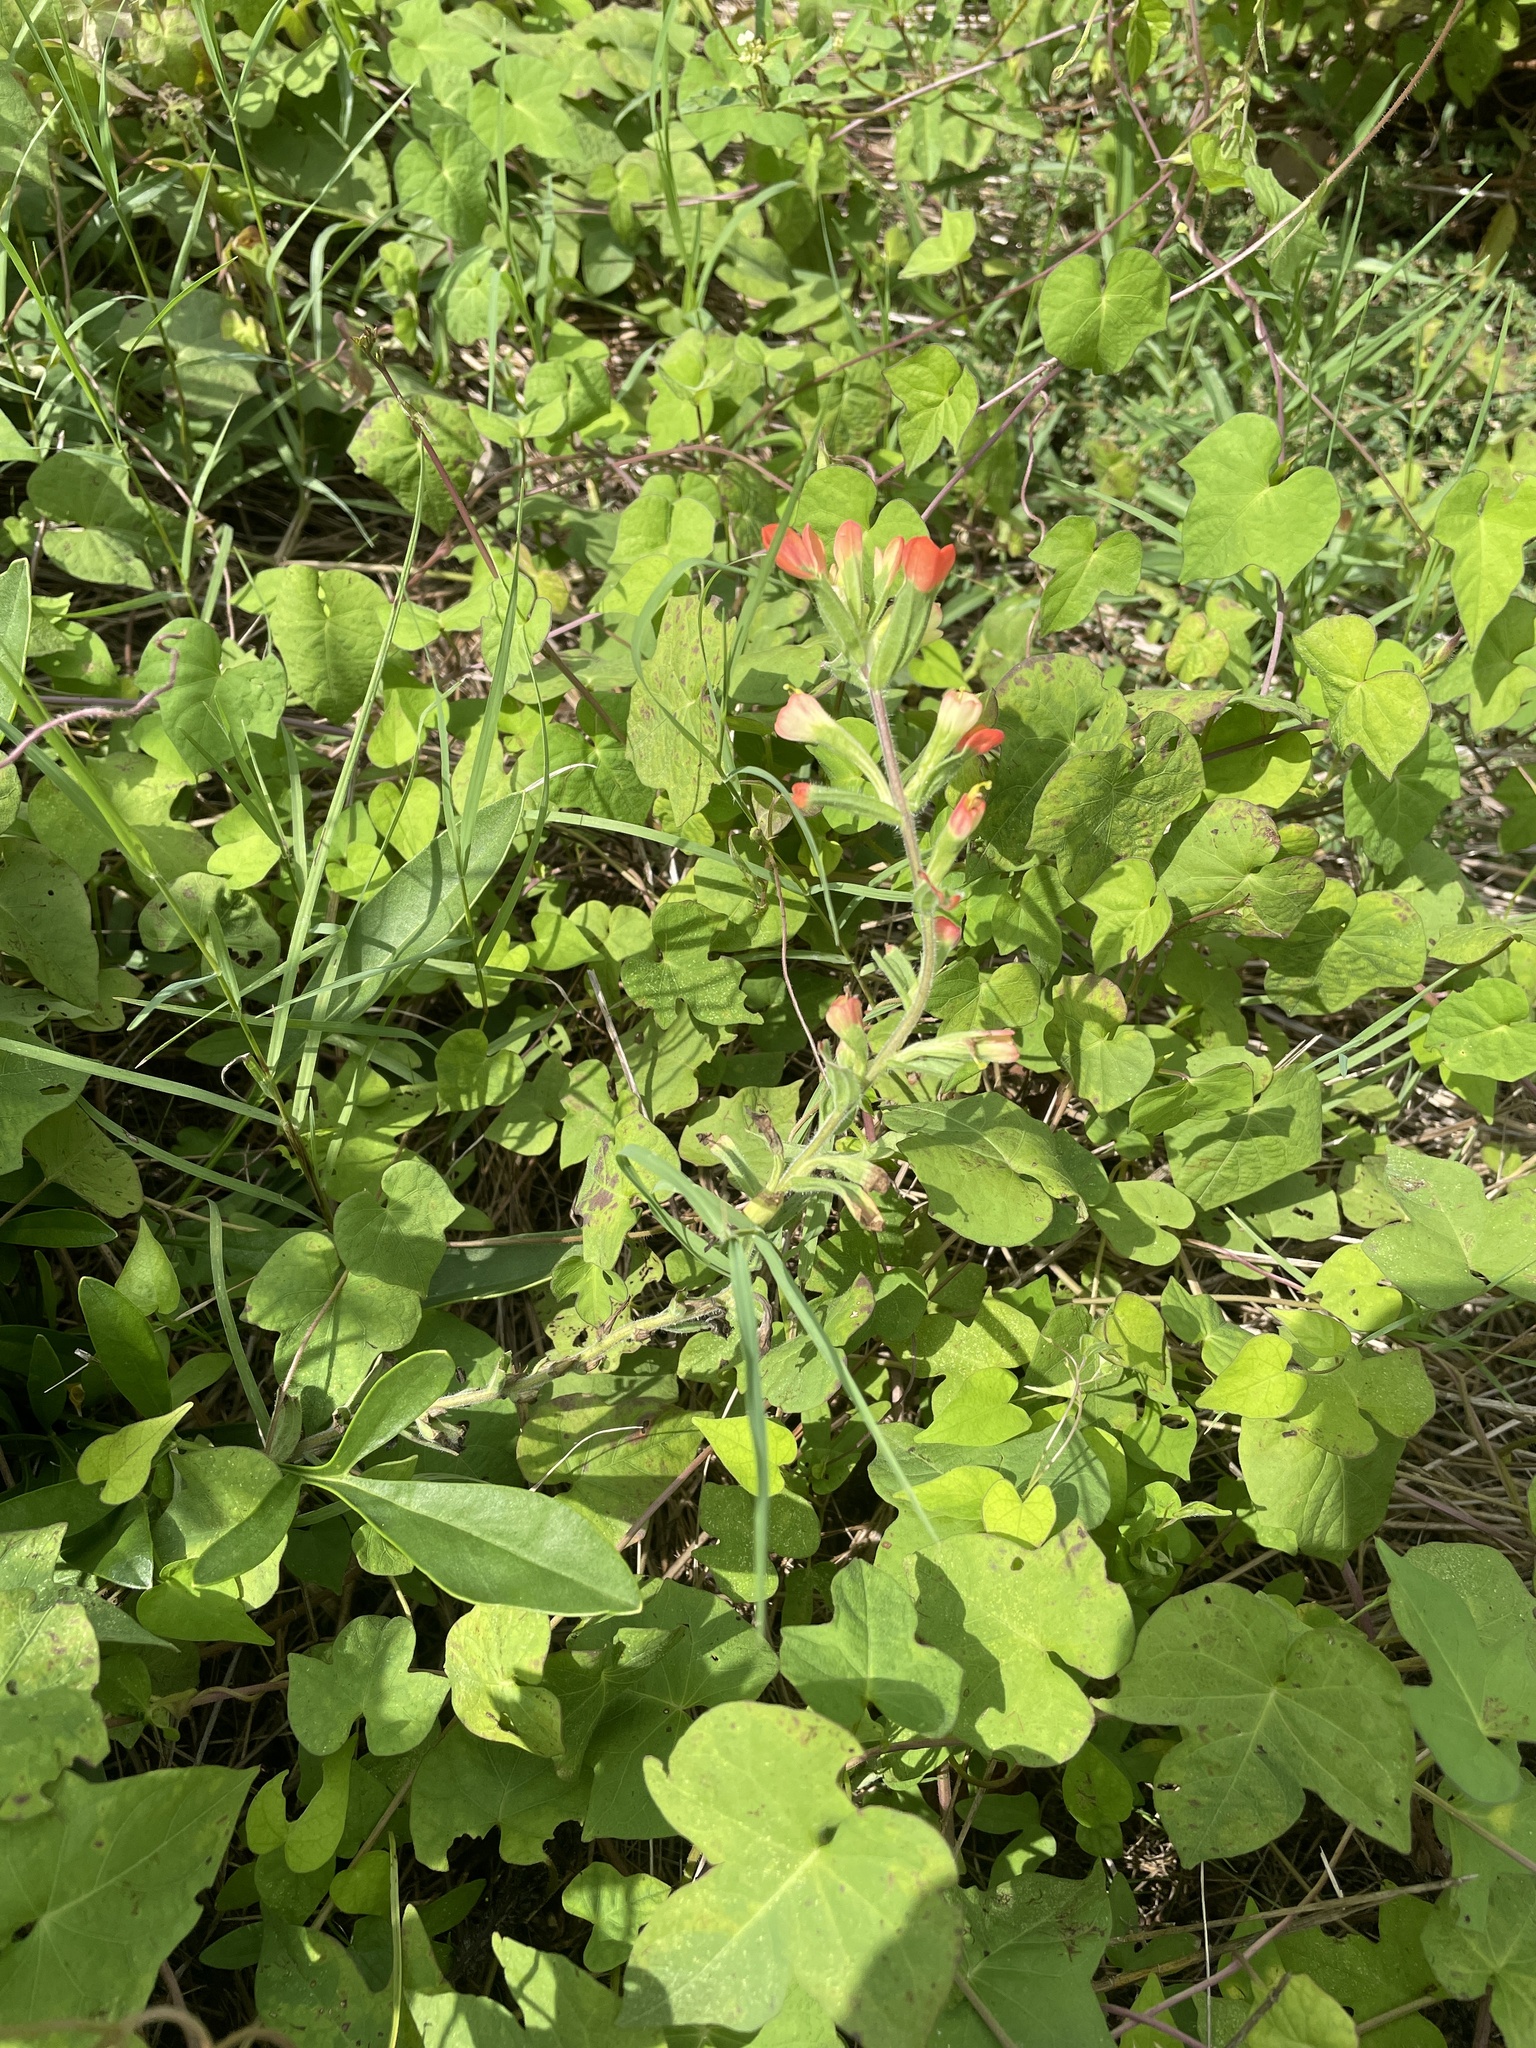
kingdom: Plantae
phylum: Tracheophyta
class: Magnoliopsida
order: Lamiales
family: Orobanchaceae
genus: Castilleja
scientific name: Castilleja indivisa
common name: Texas paintbrush
